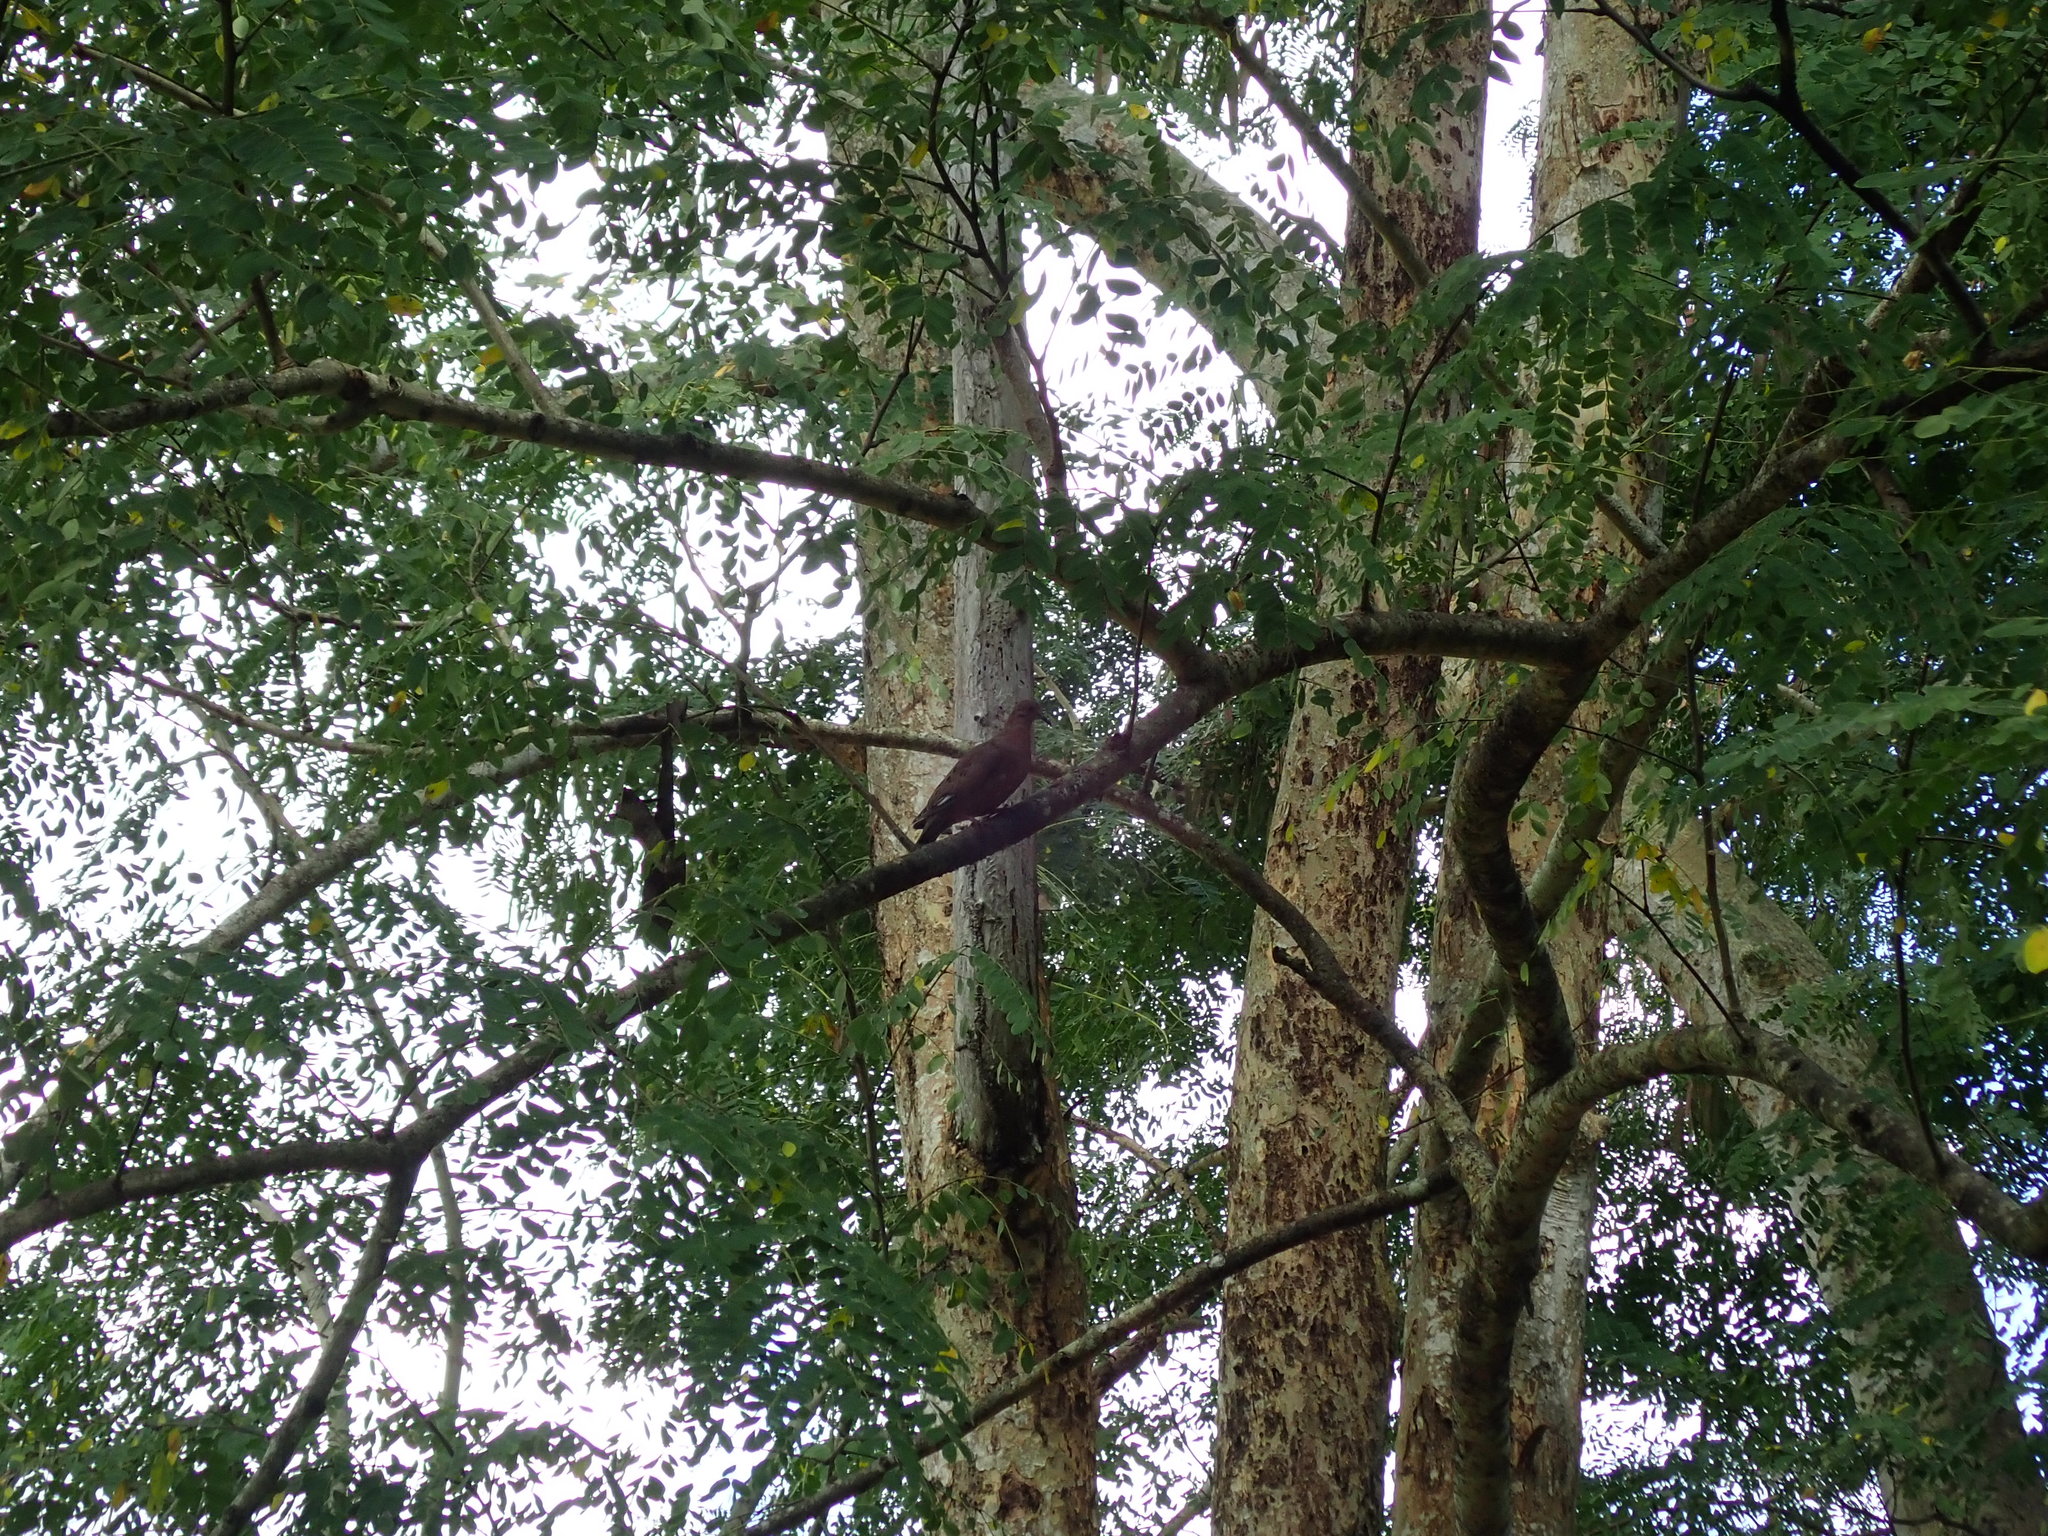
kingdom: Animalia
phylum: Chordata
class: Aves
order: Columbiformes
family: Columbidae
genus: Zenaida
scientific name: Zenaida aurita
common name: Zenaida dove
